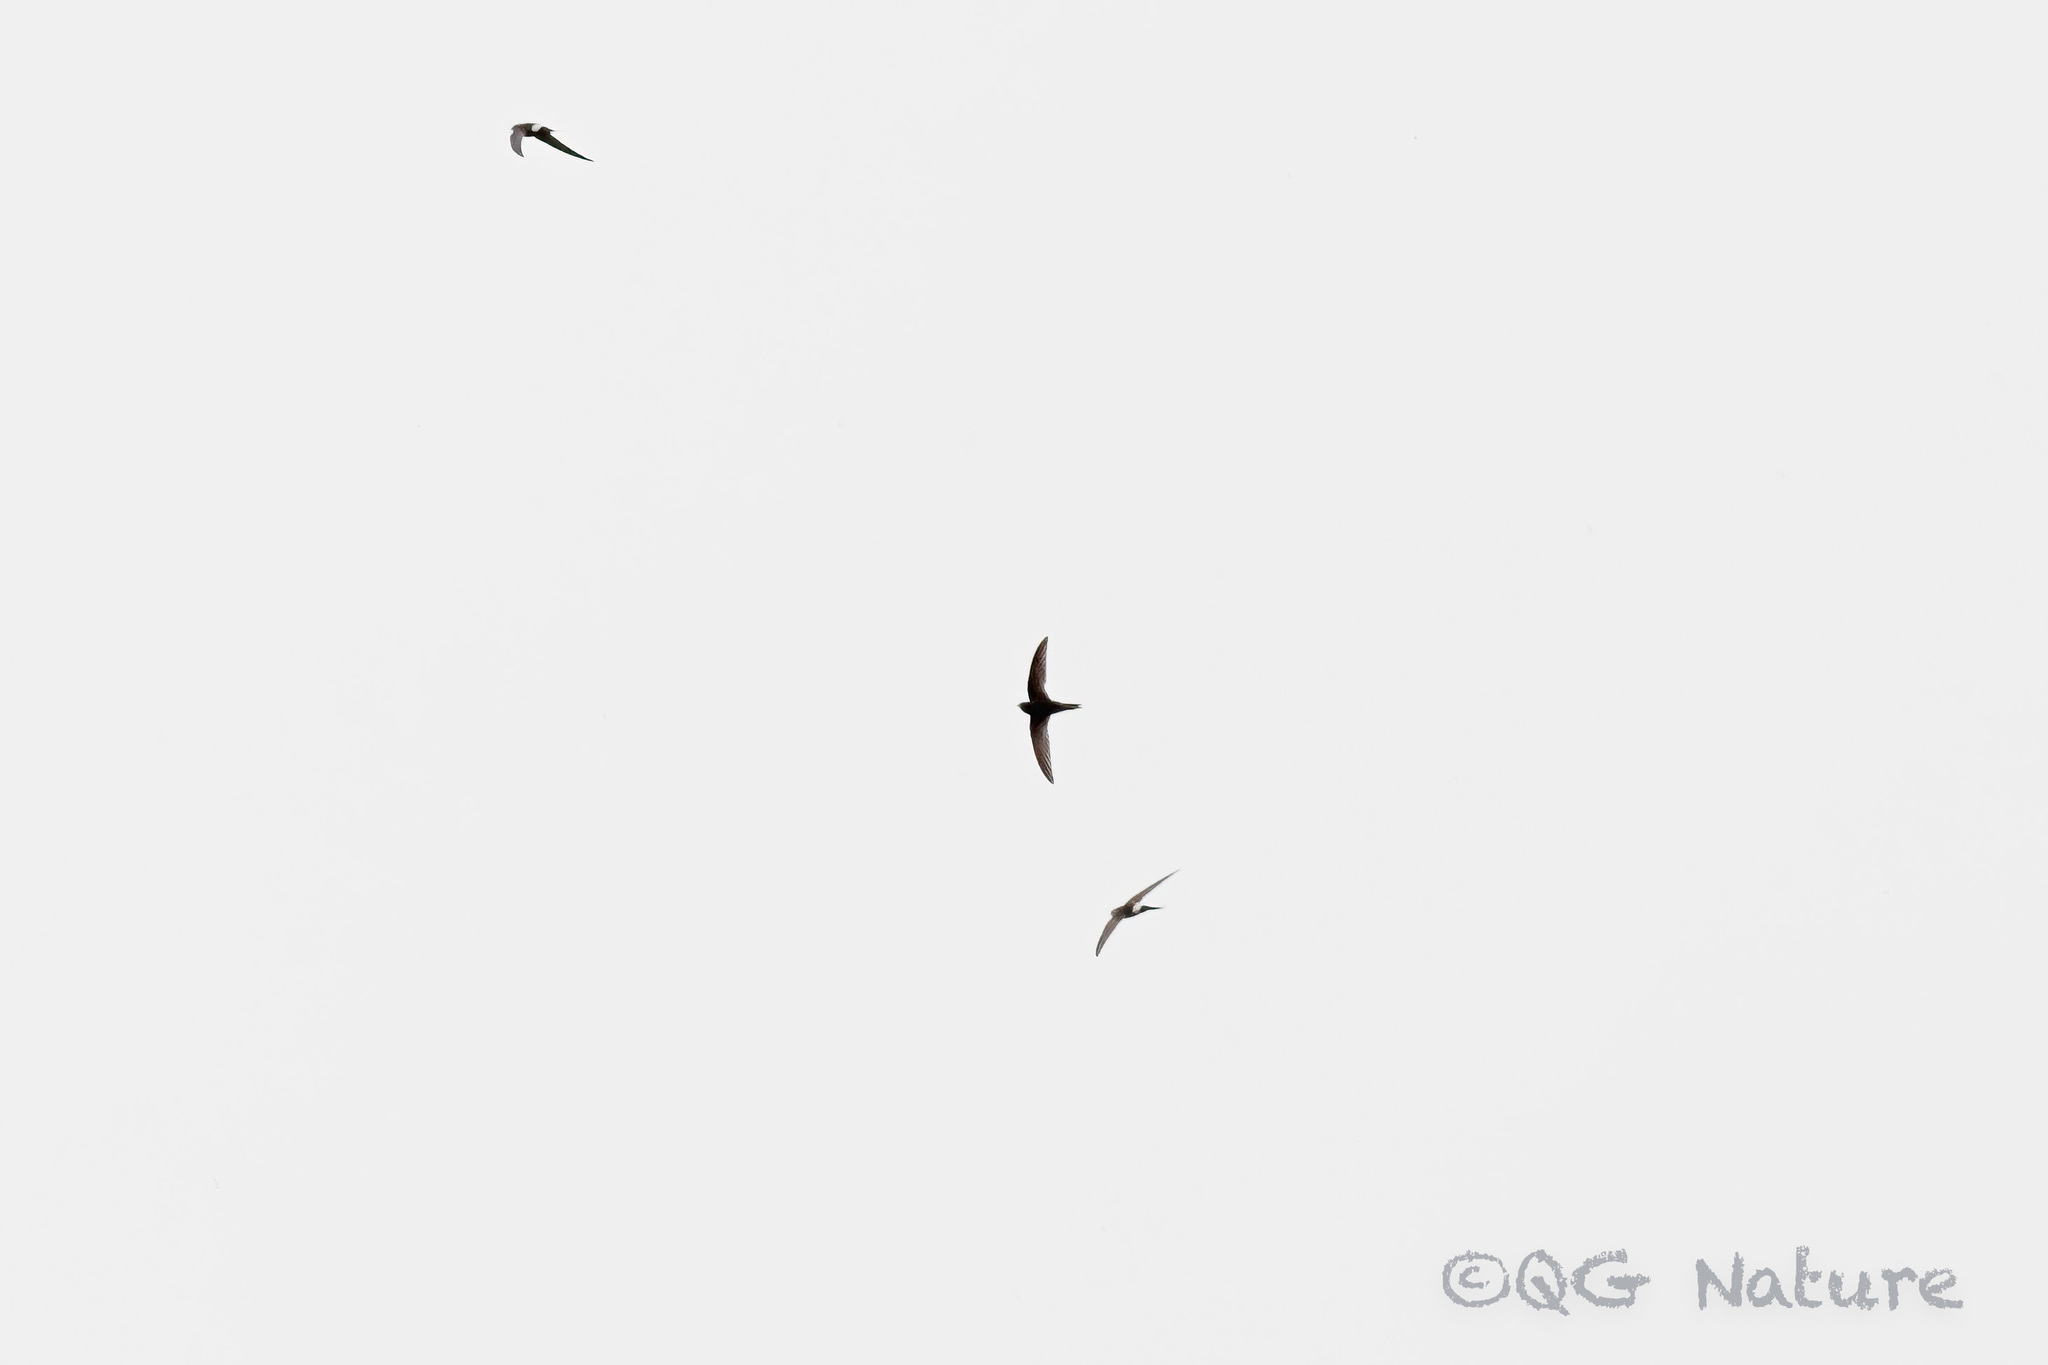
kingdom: Animalia
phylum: Chordata
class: Aves
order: Apodiformes
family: Apodidae
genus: Apus
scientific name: Apus pacificus
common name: Pacific swift
